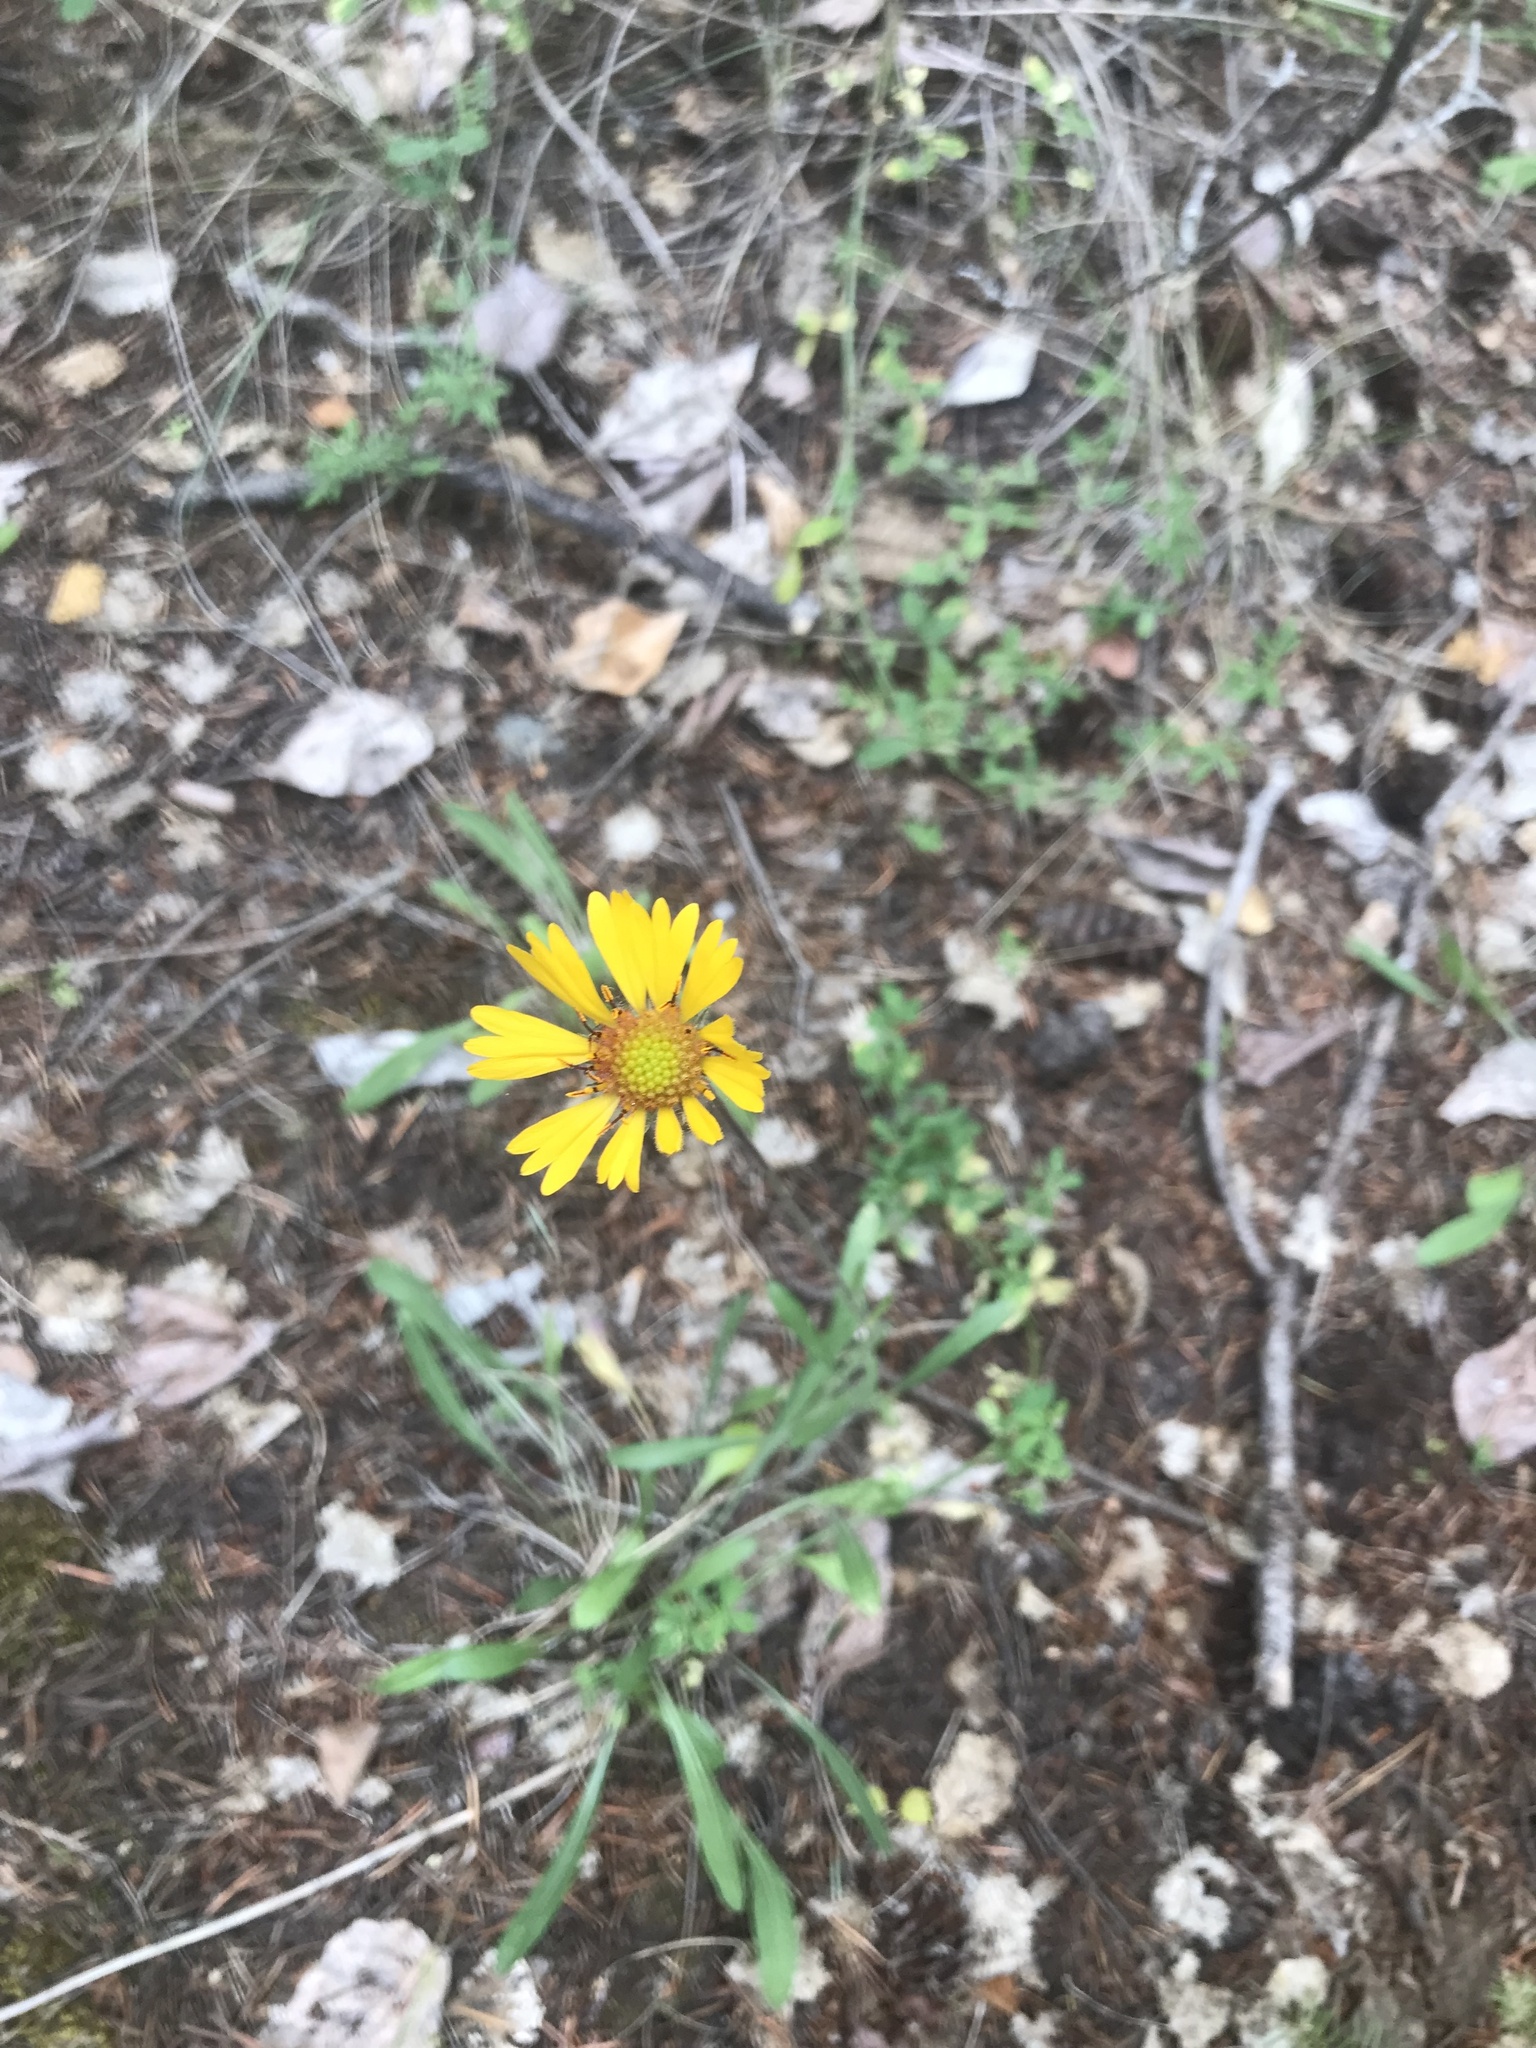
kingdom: Plantae
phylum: Tracheophyta
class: Magnoliopsida
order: Asterales
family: Asteraceae
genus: Gaillardia
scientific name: Gaillardia aristata
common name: Blanket-flower
